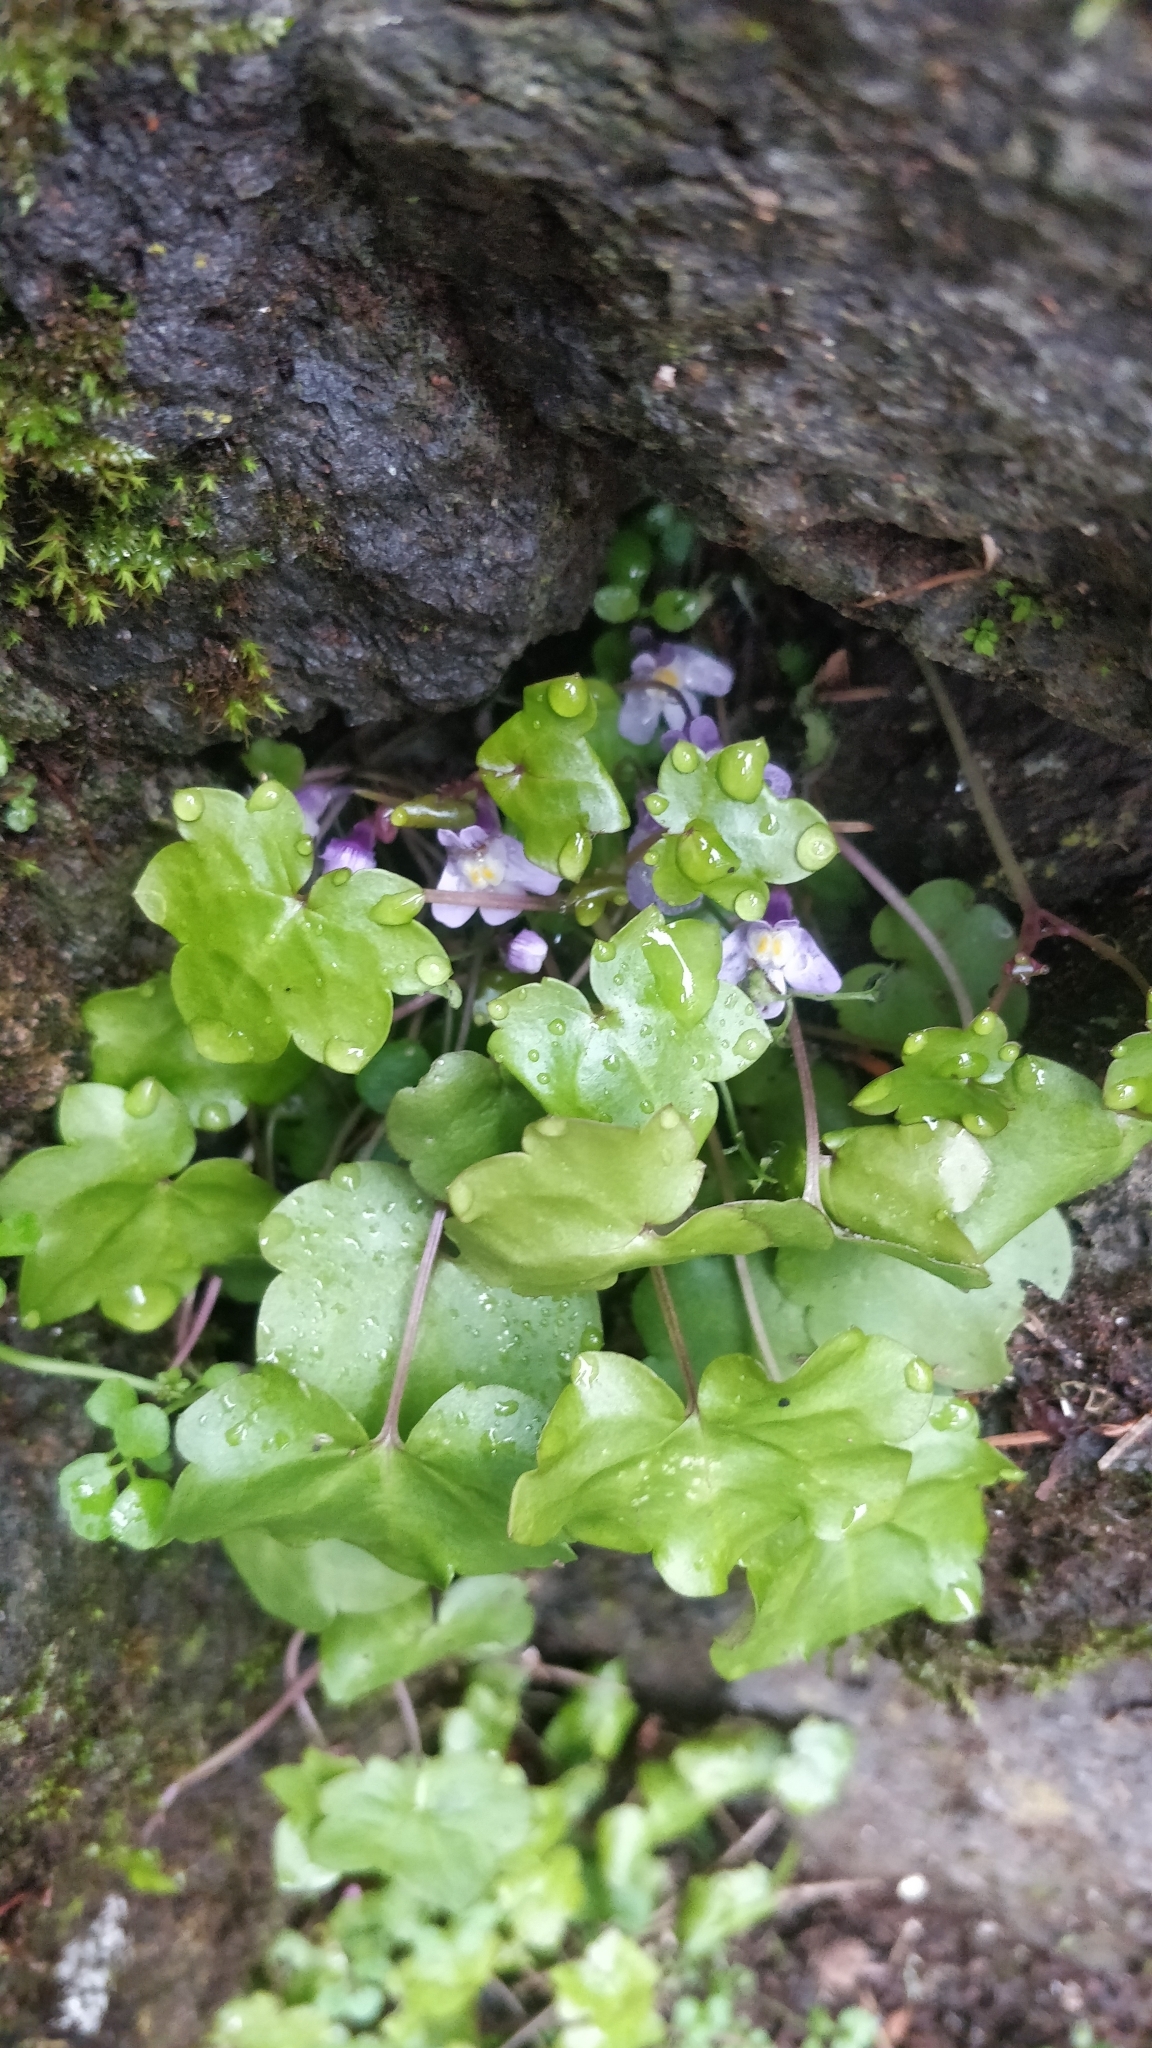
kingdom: Plantae
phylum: Tracheophyta
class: Magnoliopsida
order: Lamiales
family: Plantaginaceae
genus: Cymbalaria
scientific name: Cymbalaria muralis
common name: Ivy-leaved toadflax
